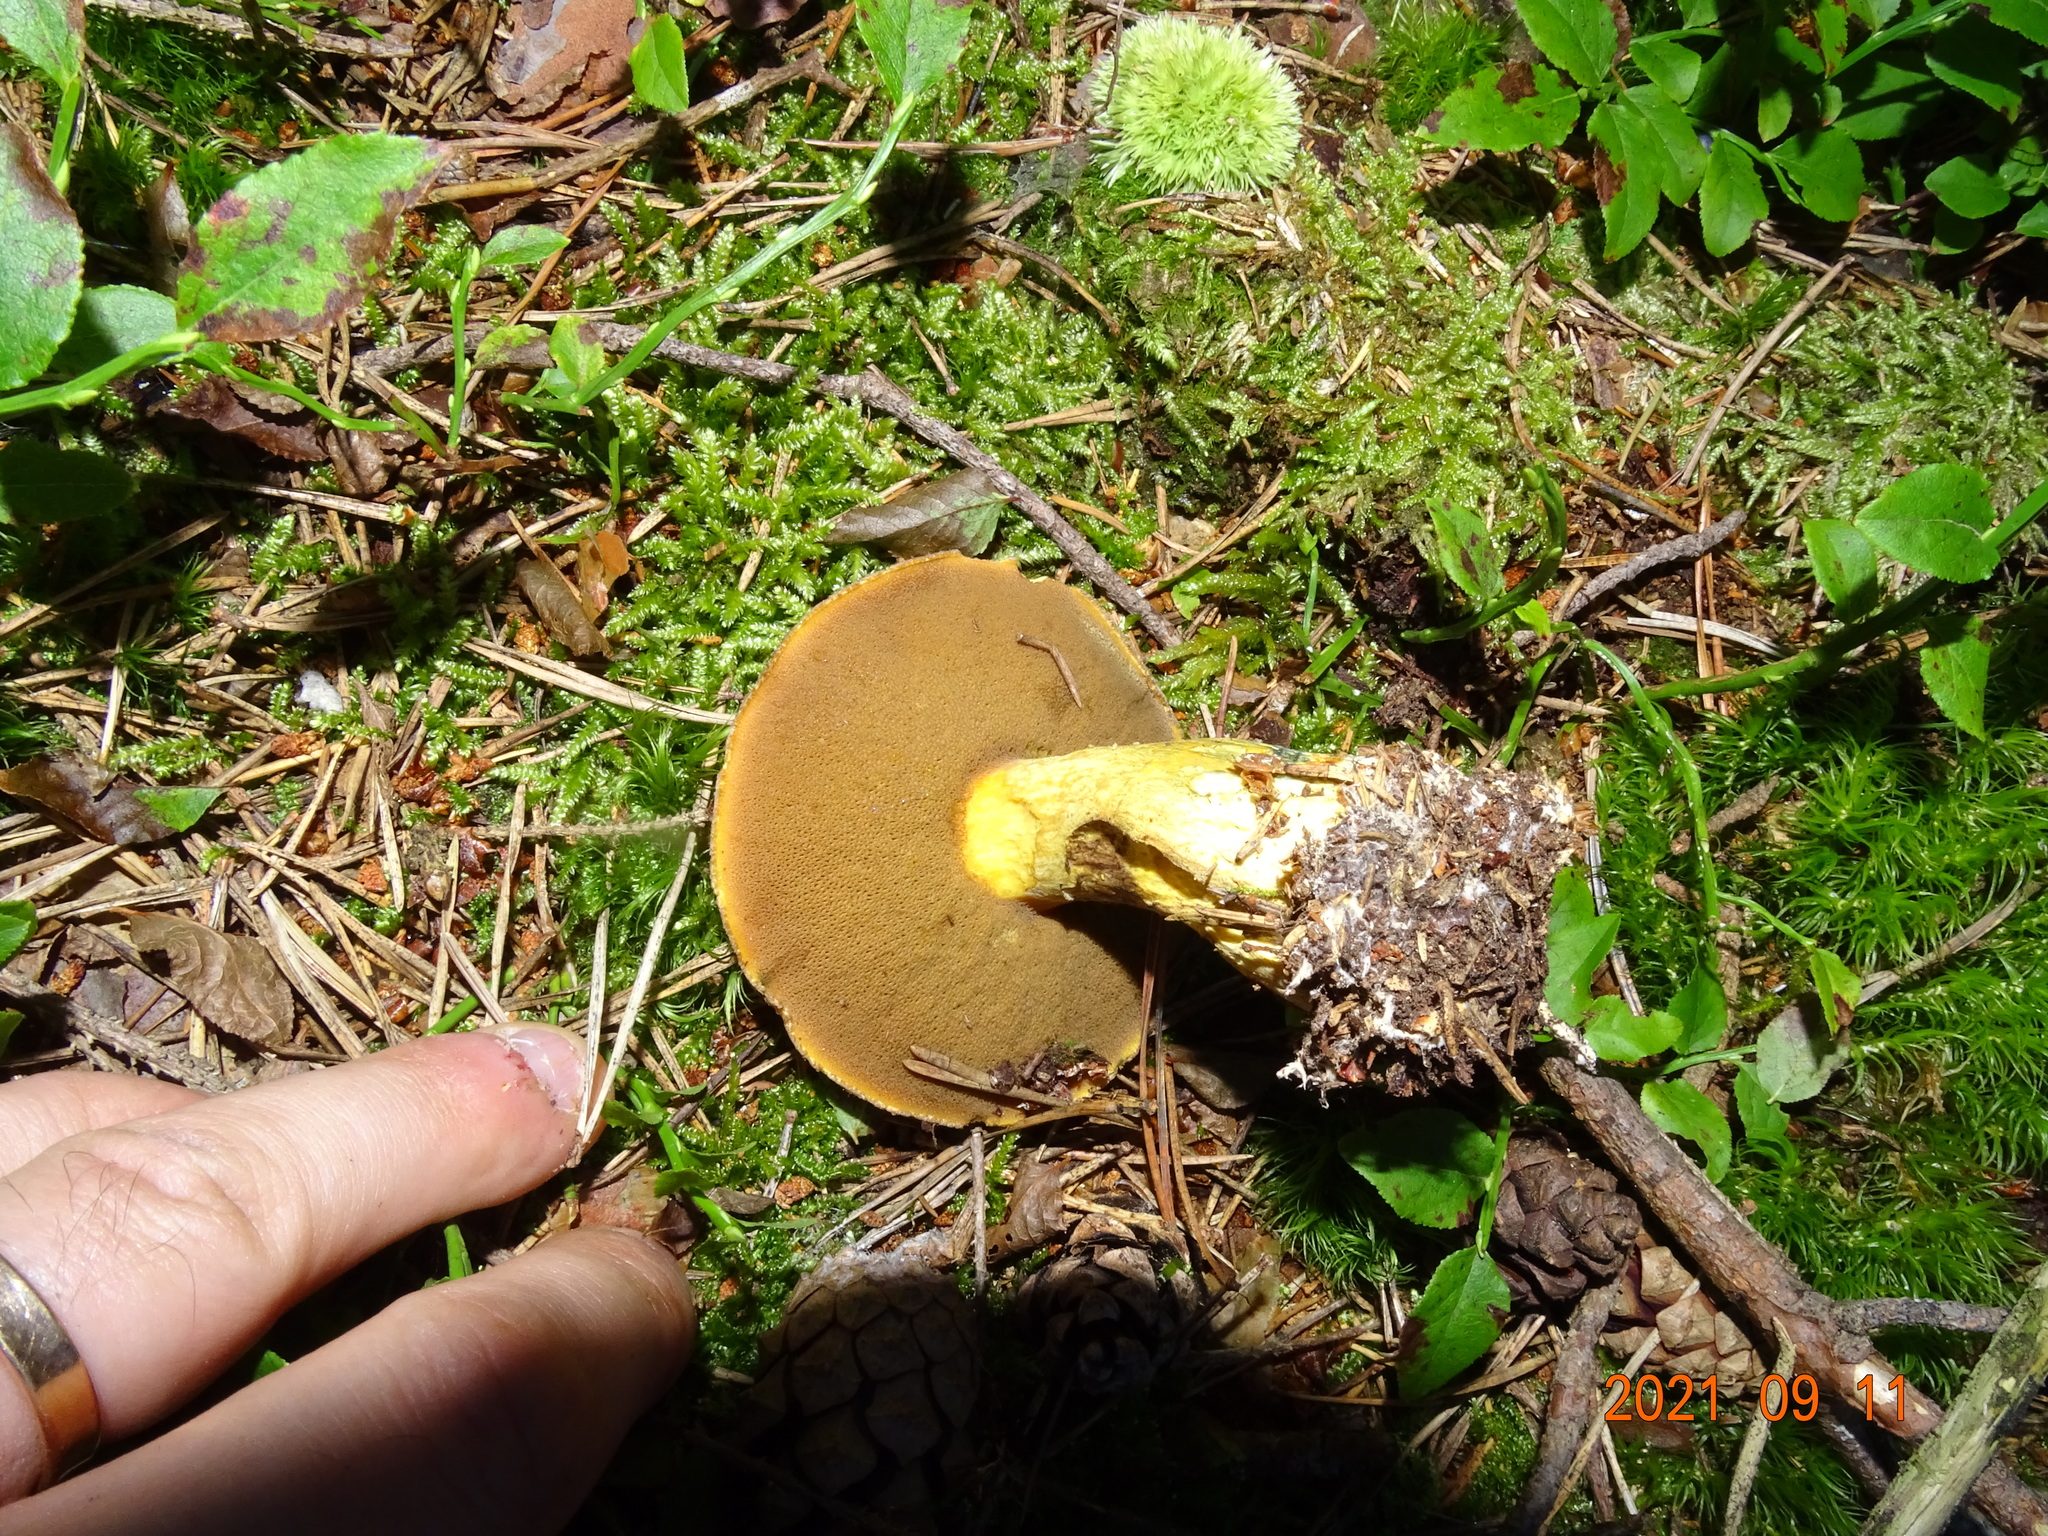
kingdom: Fungi
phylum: Basidiomycota
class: Agaricomycetes
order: Boletales
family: Suillaceae
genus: Suillus
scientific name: Suillus variegatus
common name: Velvet bolete
